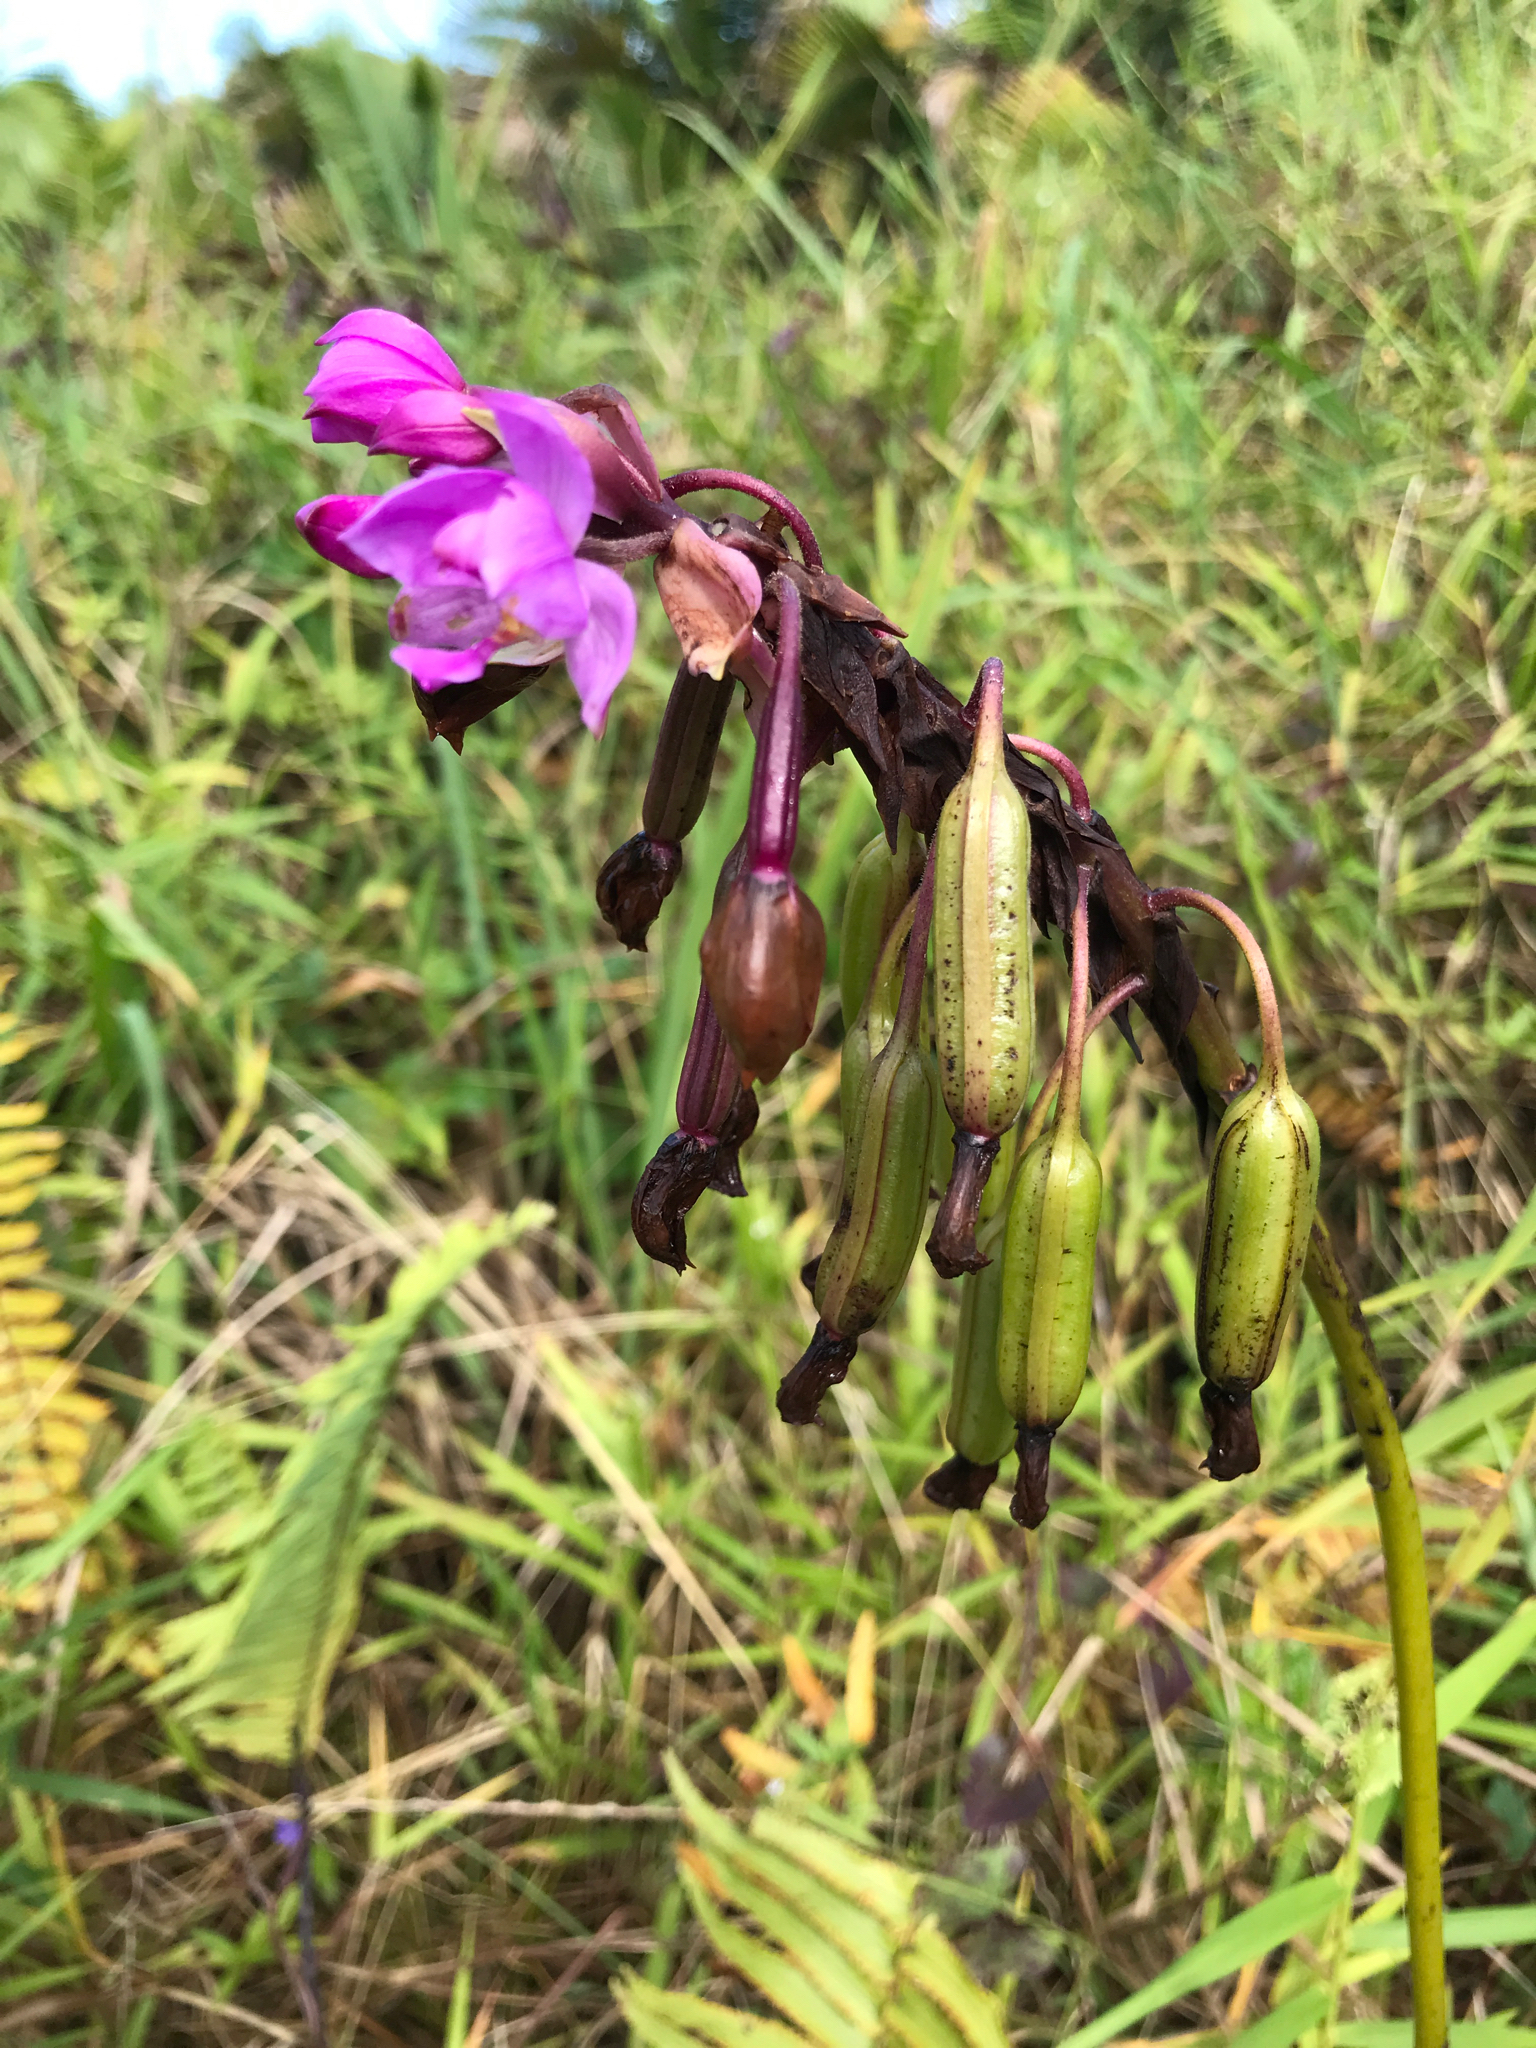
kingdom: Plantae
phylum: Tracheophyta
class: Liliopsida
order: Asparagales
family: Orchidaceae
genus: Spathoglottis
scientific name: Spathoglottis plicata
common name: Philippine ground orchid
